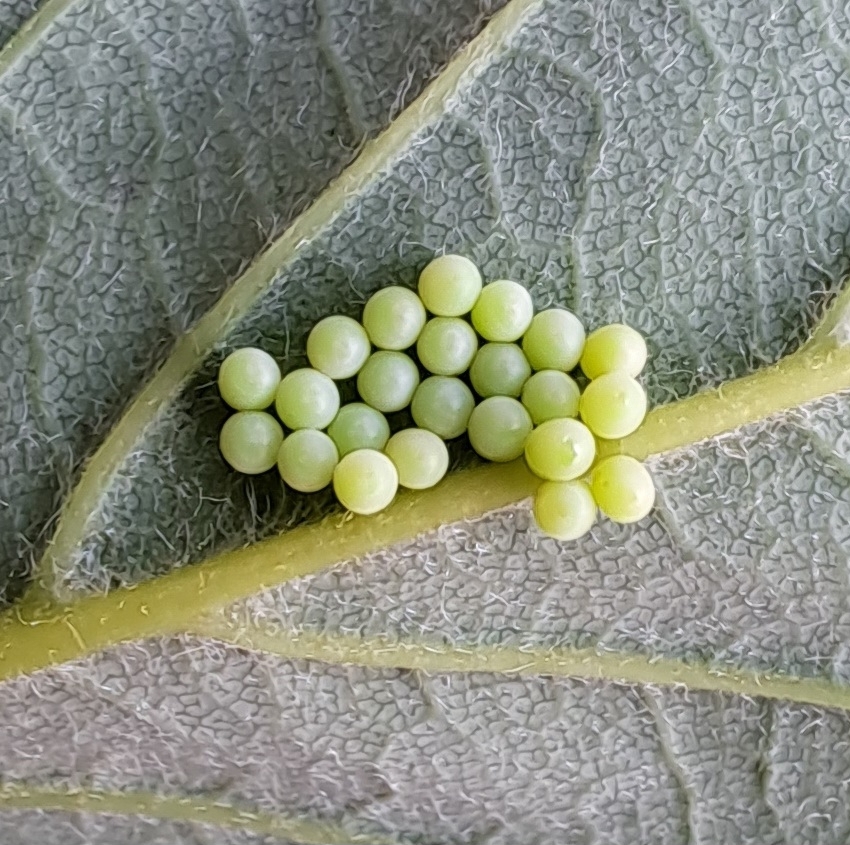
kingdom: Animalia
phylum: Arthropoda
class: Insecta
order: Hemiptera
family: Pentatomidae
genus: Palomena
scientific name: Palomena prasina
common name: Green shieldbug
